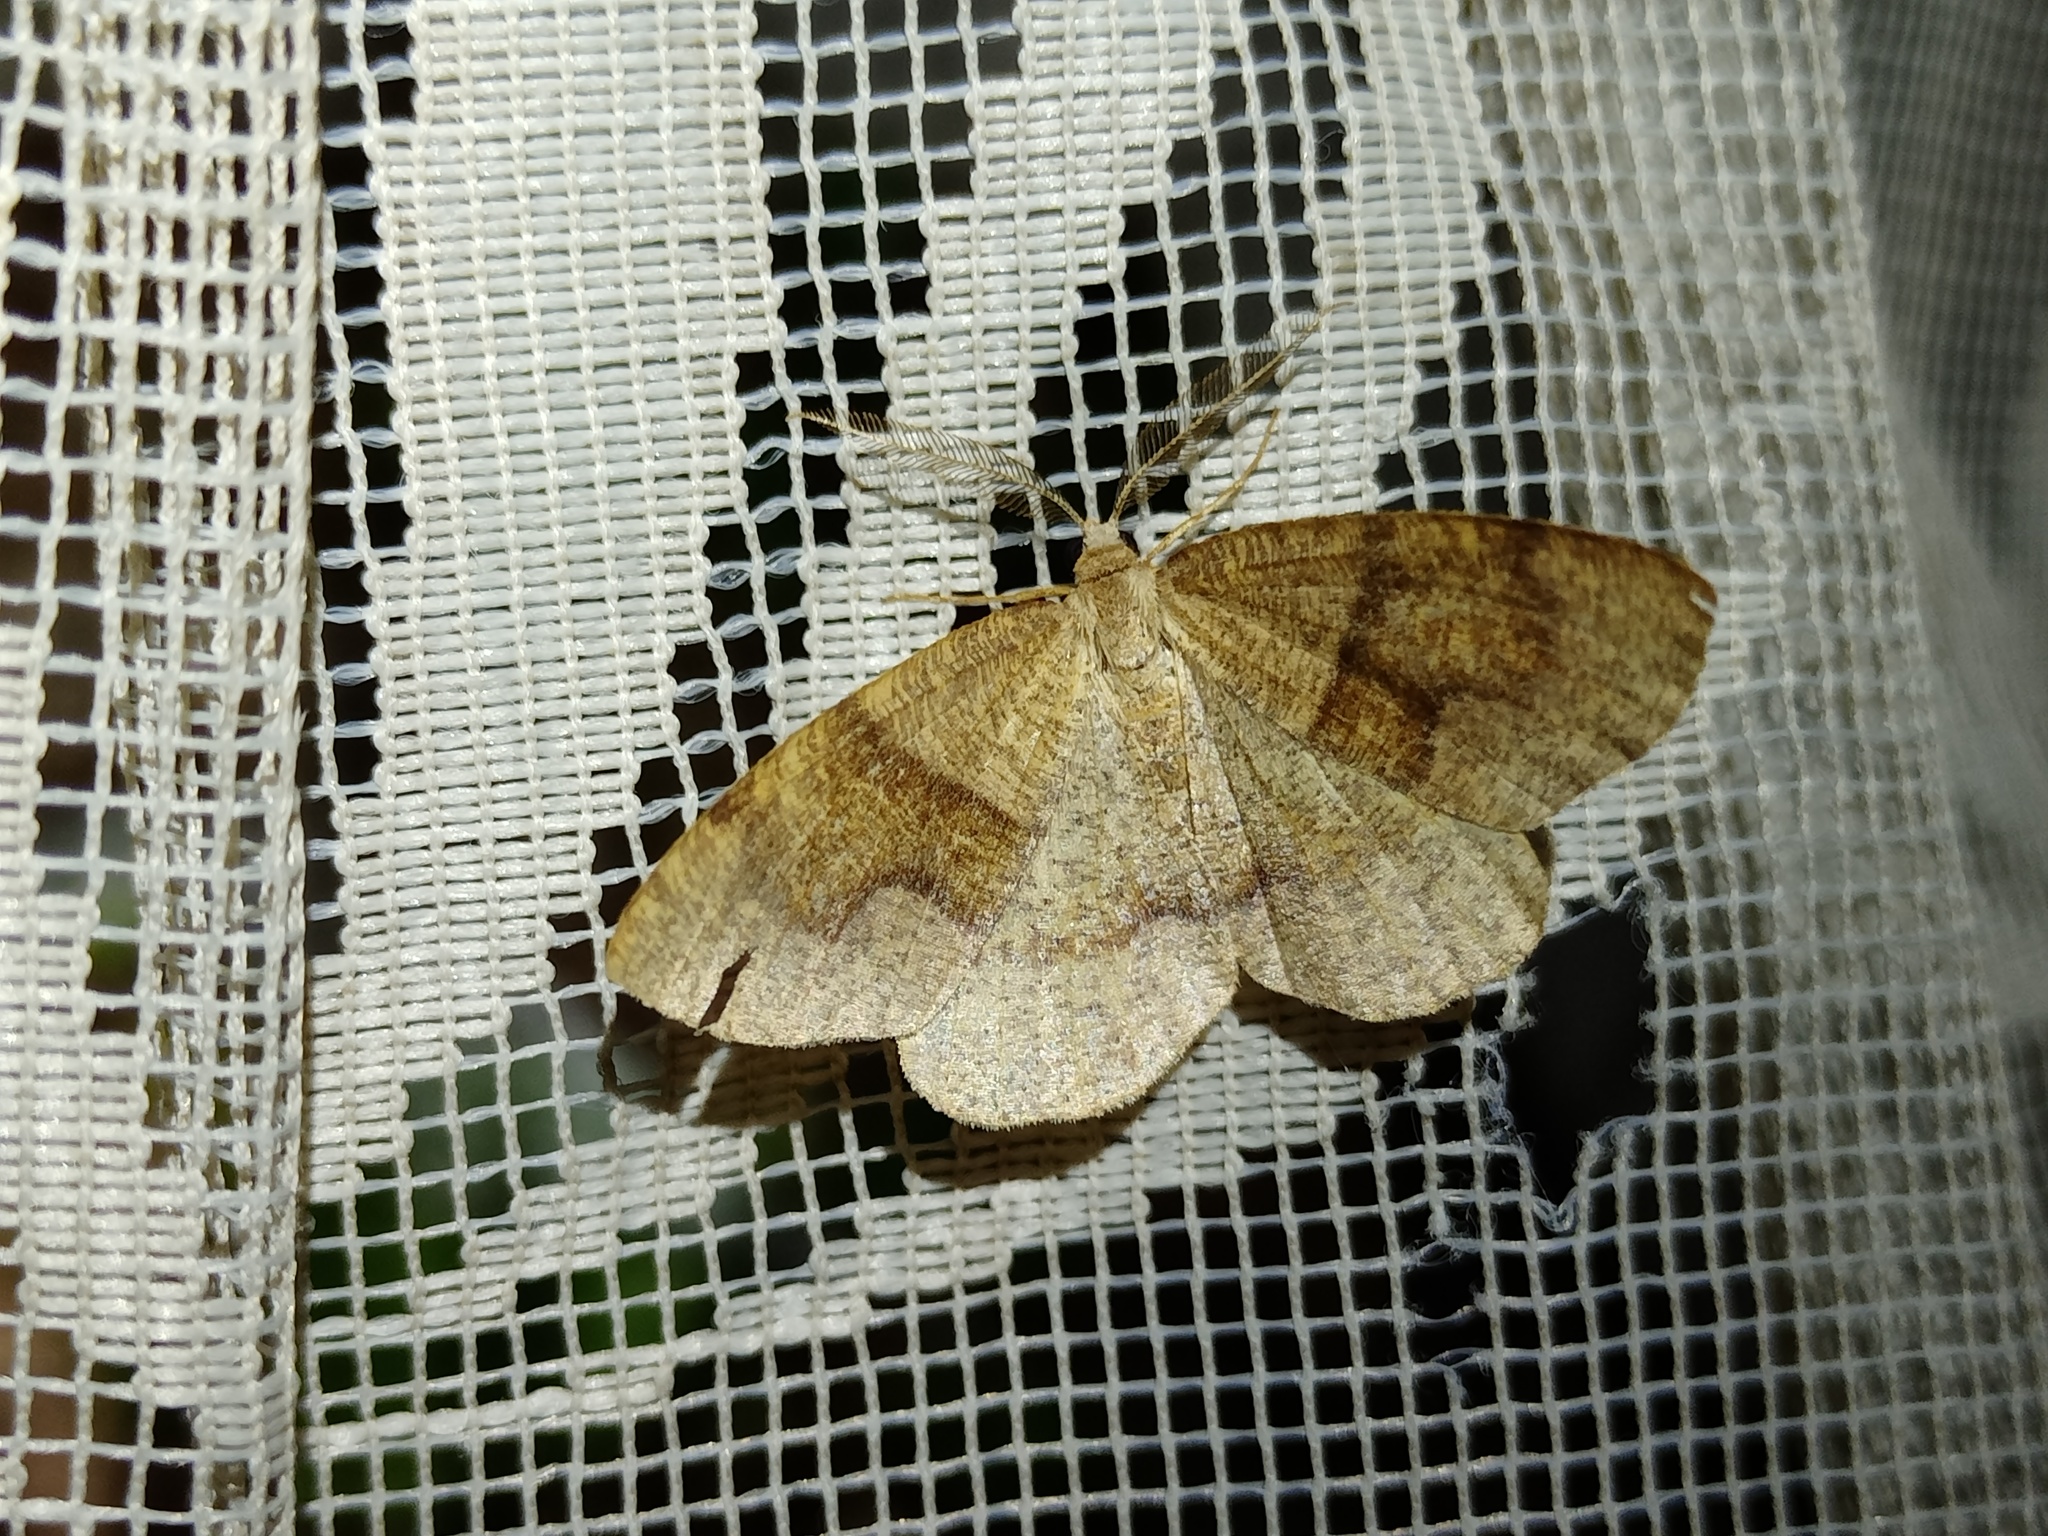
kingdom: Animalia
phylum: Arthropoda
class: Insecta
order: Lepidoptera
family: Geometridae
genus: Plagodis
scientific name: Plagodis pulveraria
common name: Barred umber
